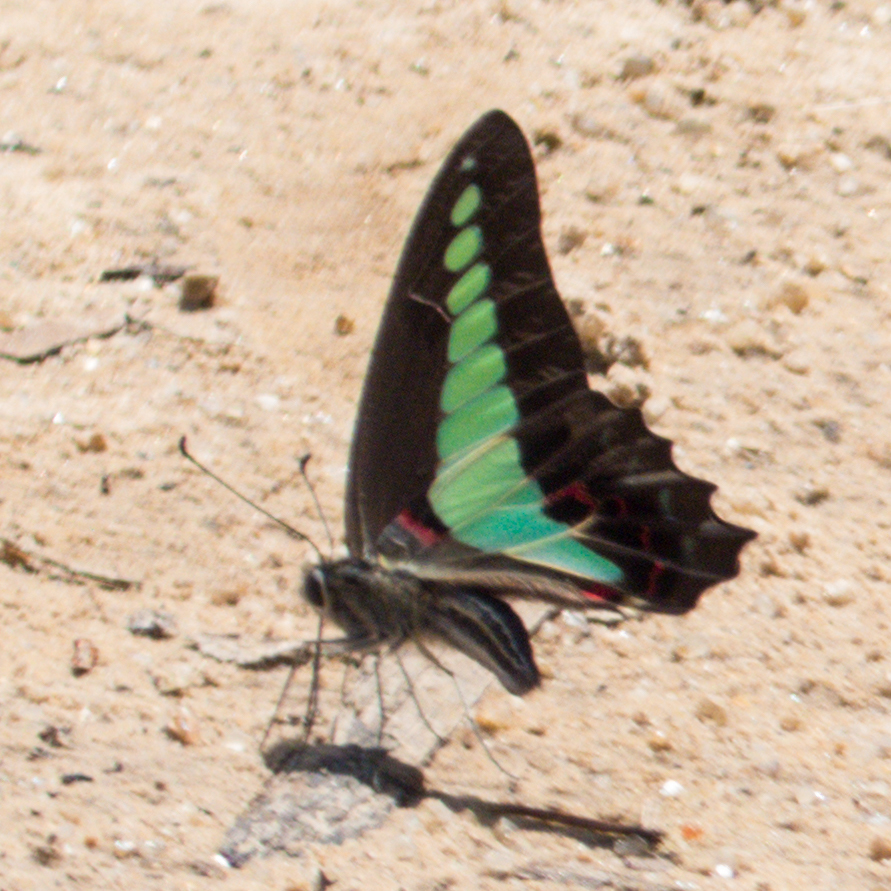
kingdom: Fungi
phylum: Ascomycota
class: Sordariomycetes
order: Microascales
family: Microascaceae
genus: Graphium
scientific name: Graphium sarpedon
